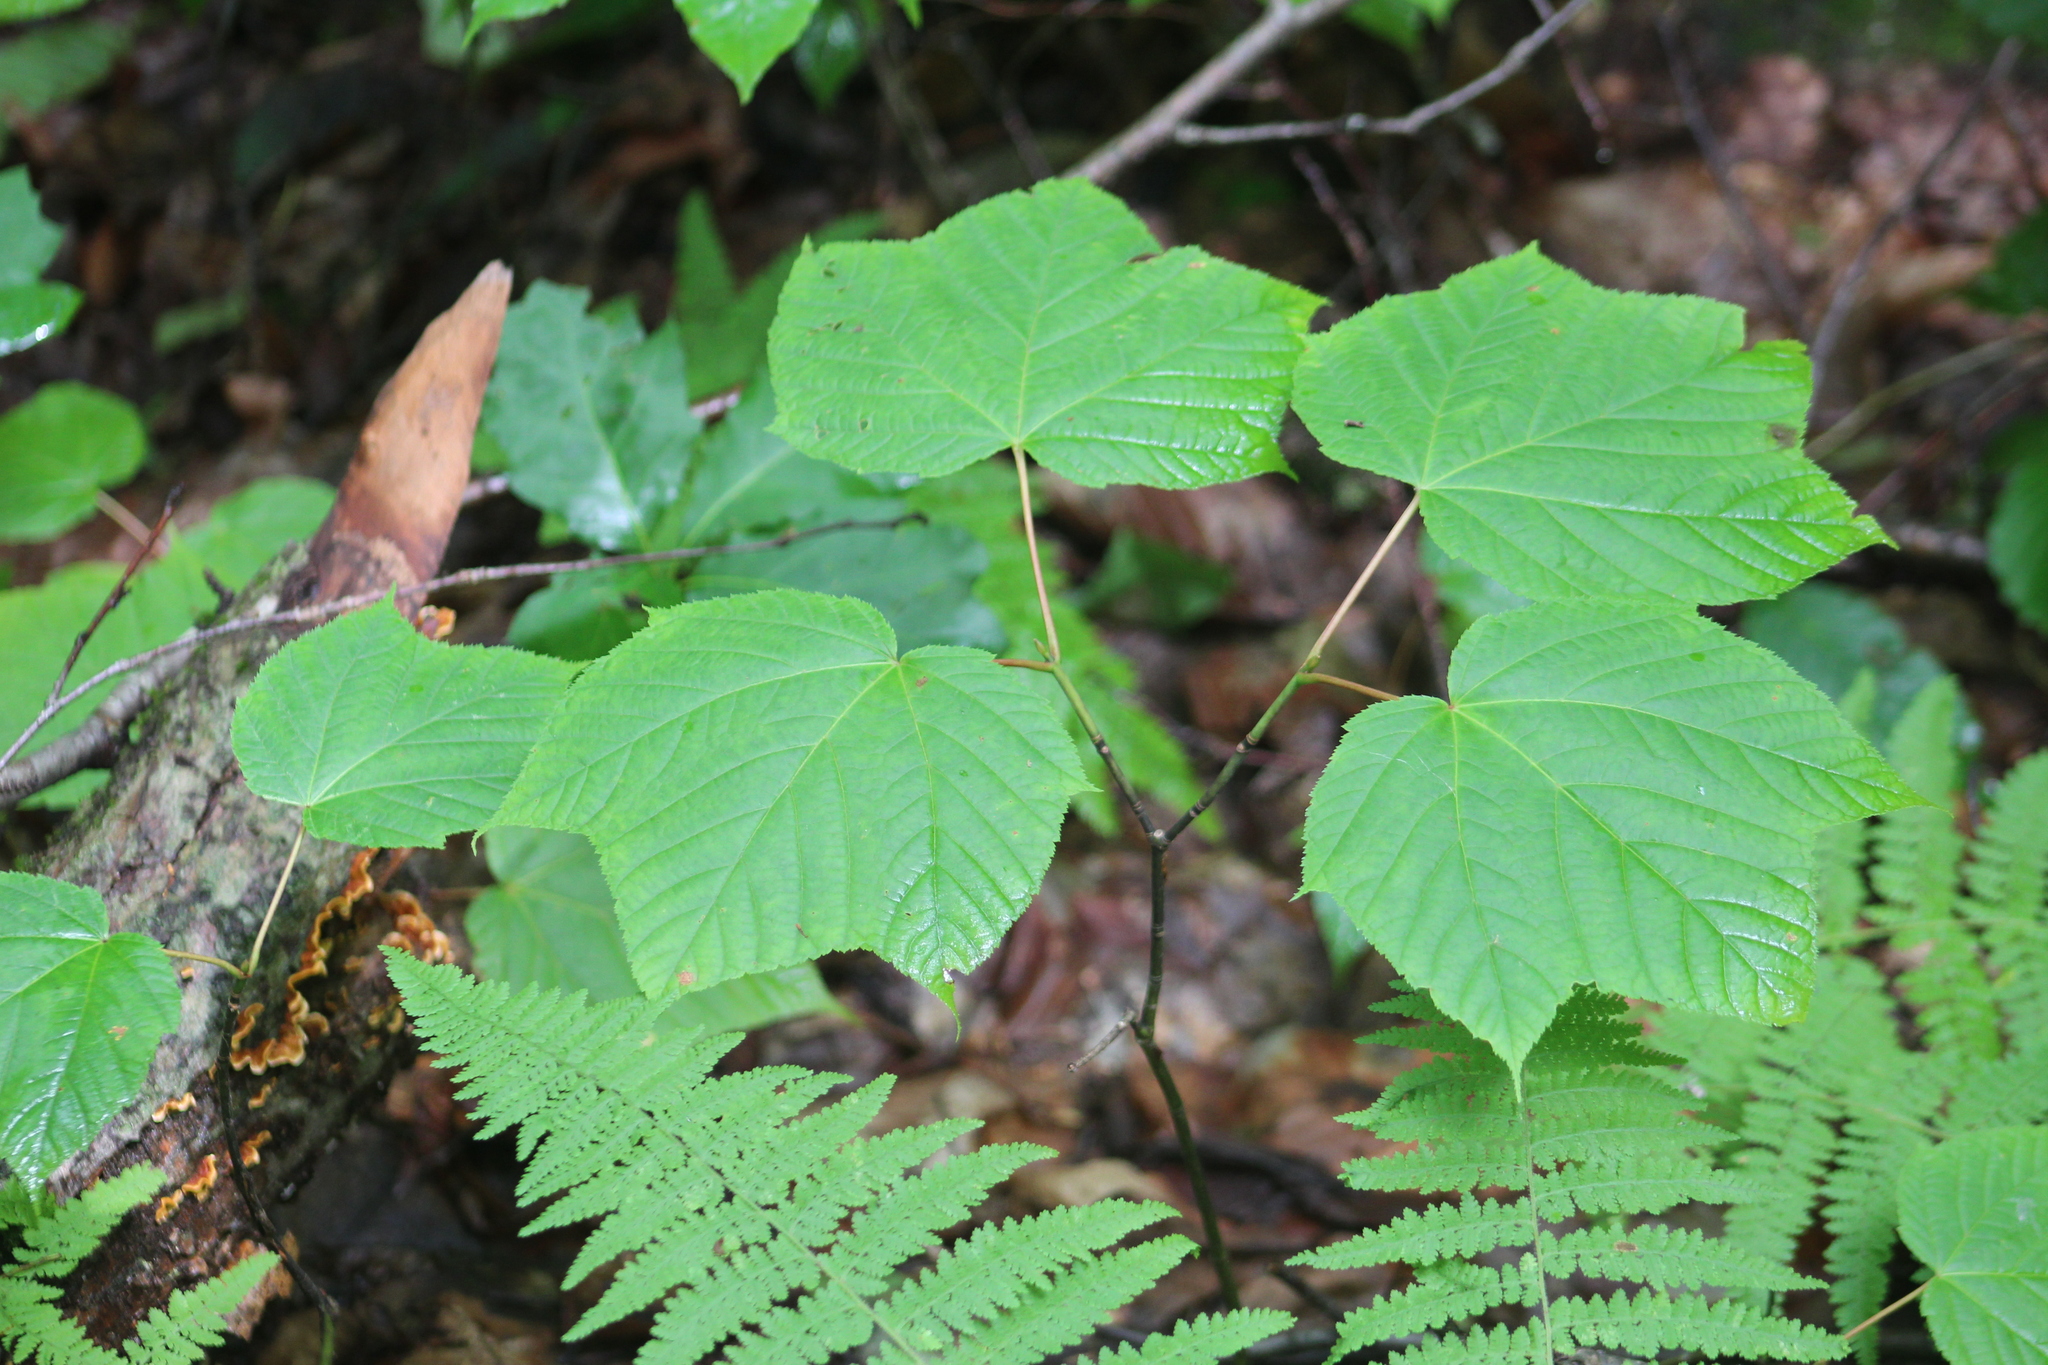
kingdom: Plantae
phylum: Tracheophyta
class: Magnoliopsida
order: Sapindales
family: Sapindaceae
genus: Acer
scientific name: Acer pensylvanicum
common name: Moosewood
